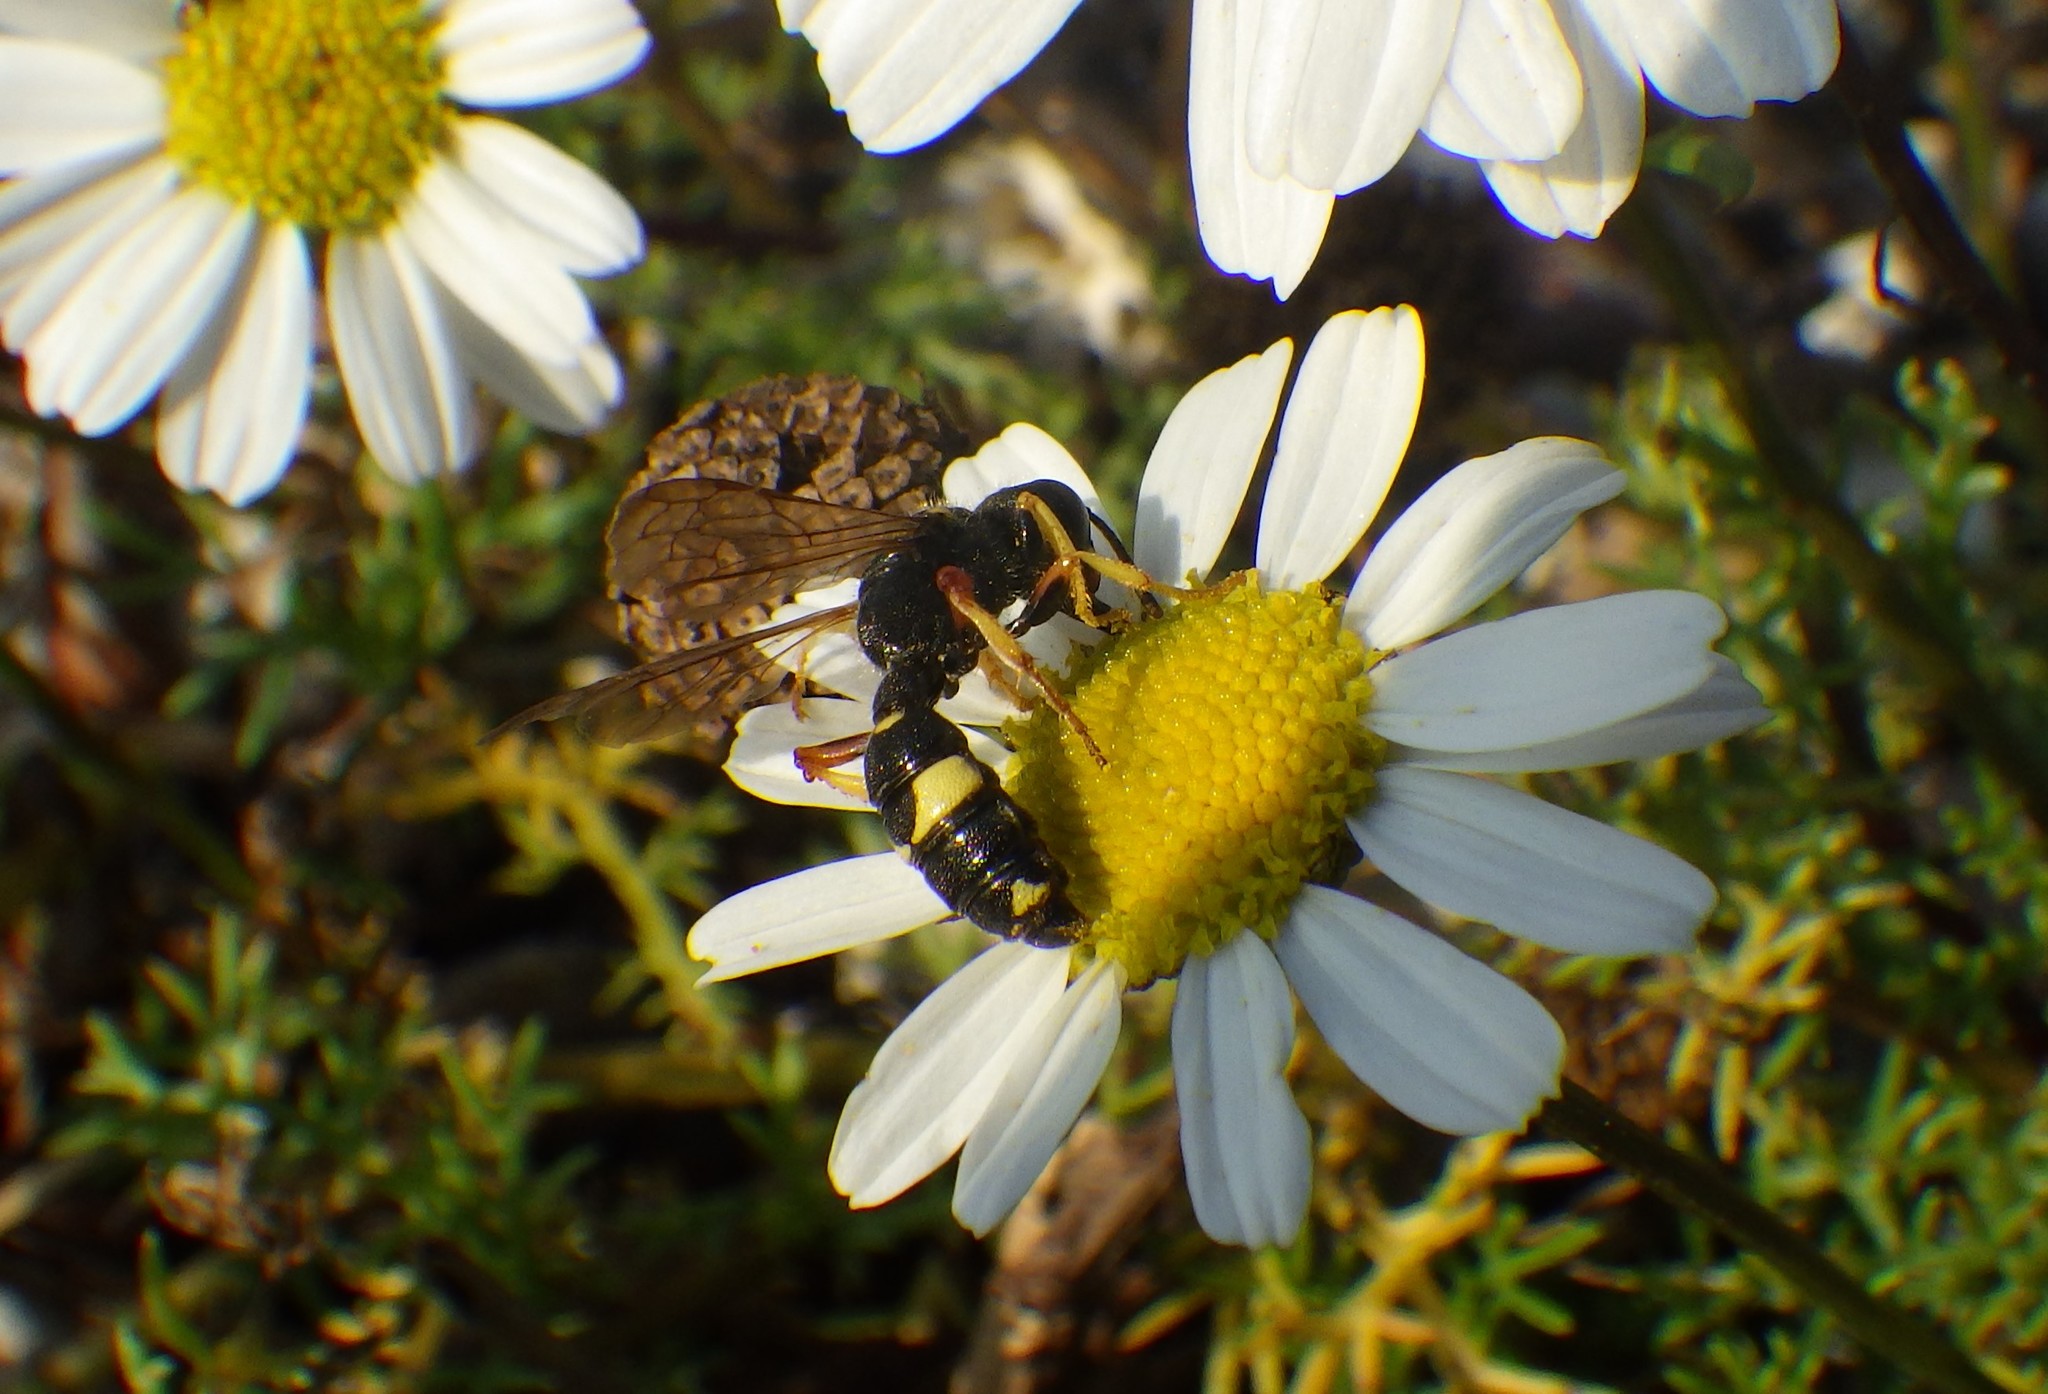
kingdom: Animalia
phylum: Arthropoda
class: Insecta
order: Hymenoptera
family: Crabronidae
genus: Cerceris
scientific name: Cerceris rybyensis
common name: Ornate tailed digger wasp
